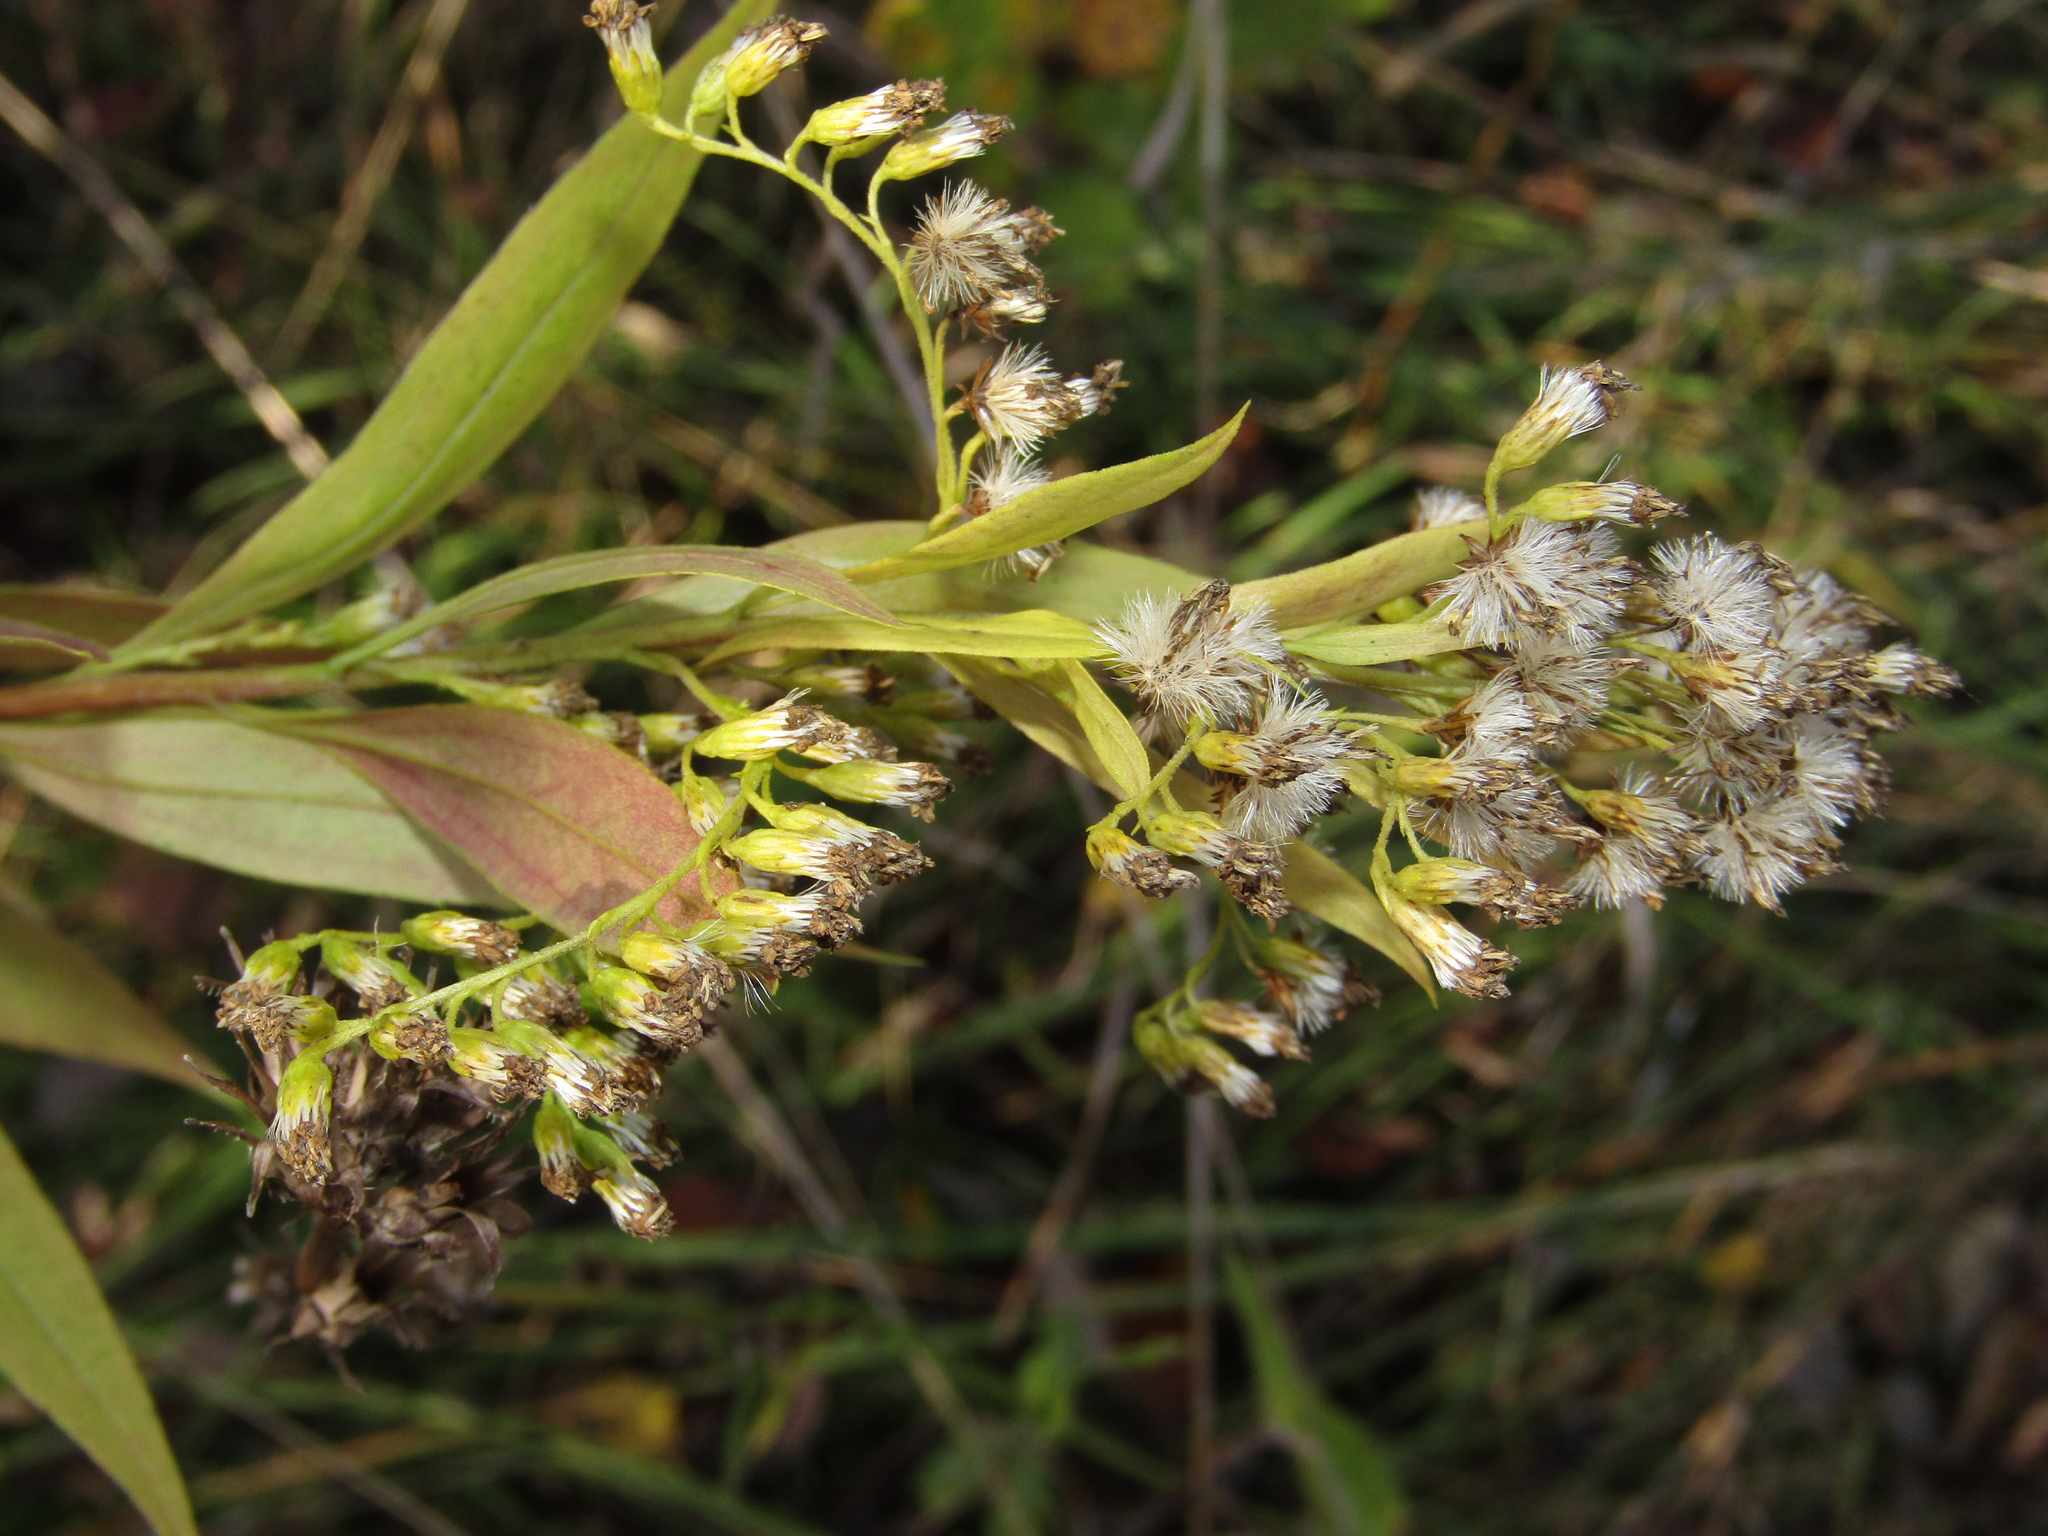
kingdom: Plantae
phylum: Tracheophyta
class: Magnoliopsida
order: Asterales
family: Asteraceae
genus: Solidago
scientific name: Solidago gigantea
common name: Giant goldenrod
